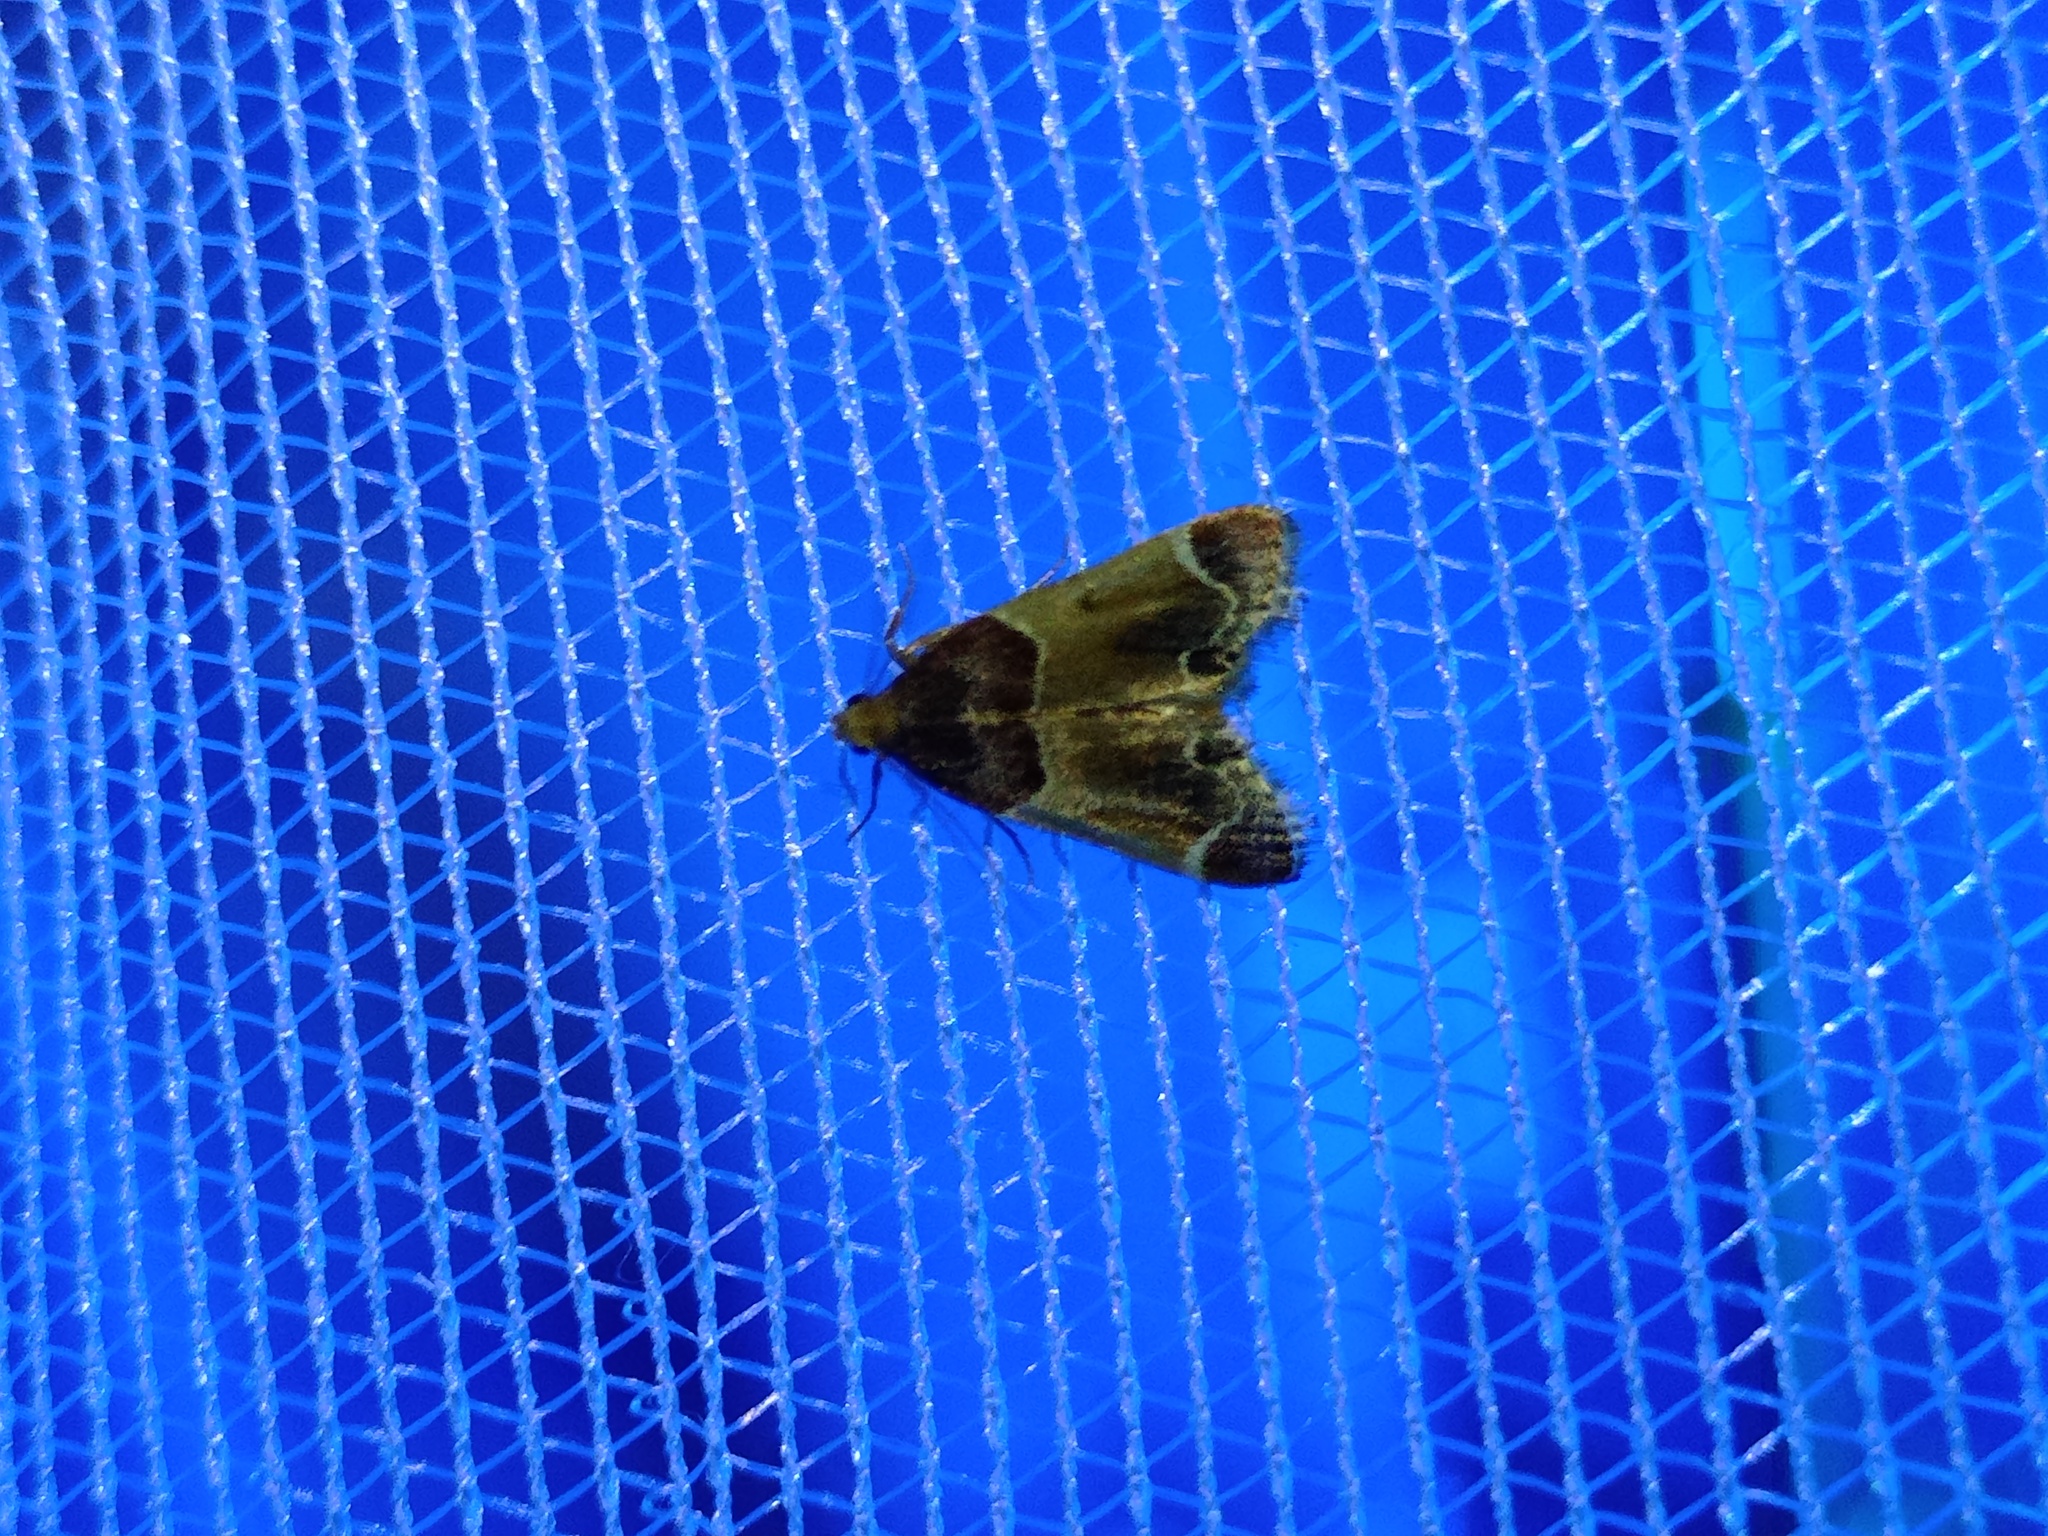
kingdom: Animalia
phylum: Arthropoda
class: Insecta
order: Lepidoptera
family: Pyralidae
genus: Pyralis
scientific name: Pyralis farinalis
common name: Meal moth
